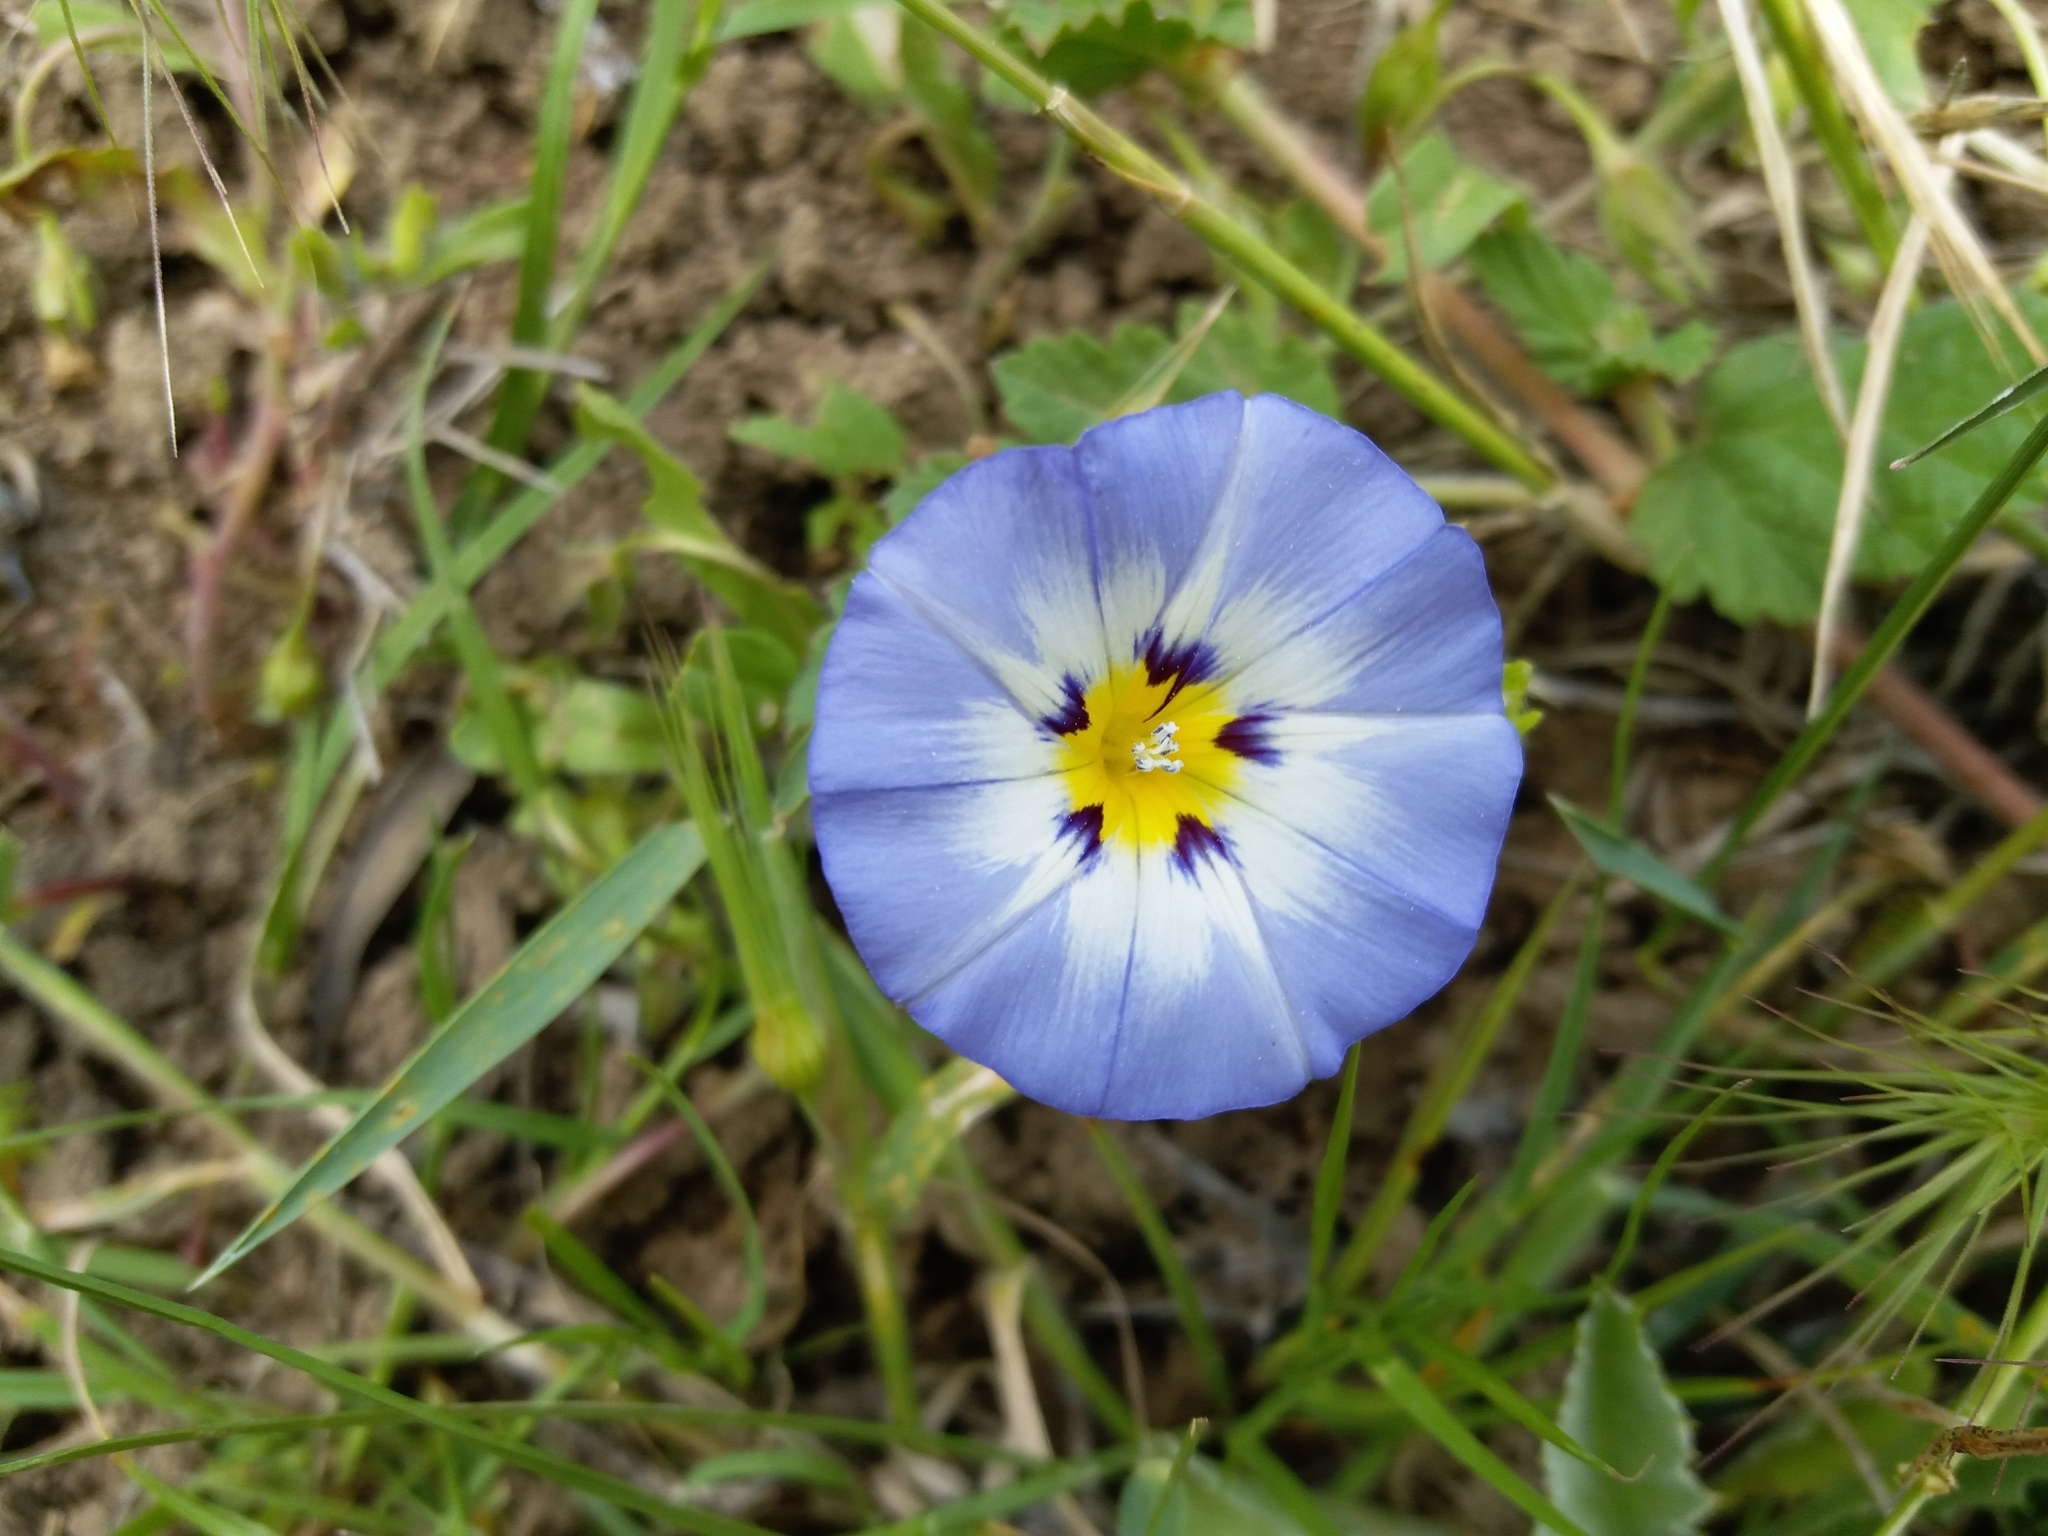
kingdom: Plantae
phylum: Tracheophyta
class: Magnoliopsida
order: Solanales
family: Convolvulaceae
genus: Convolvulus
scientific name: Convolvulus tricolor
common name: Dwarf morning-glory
